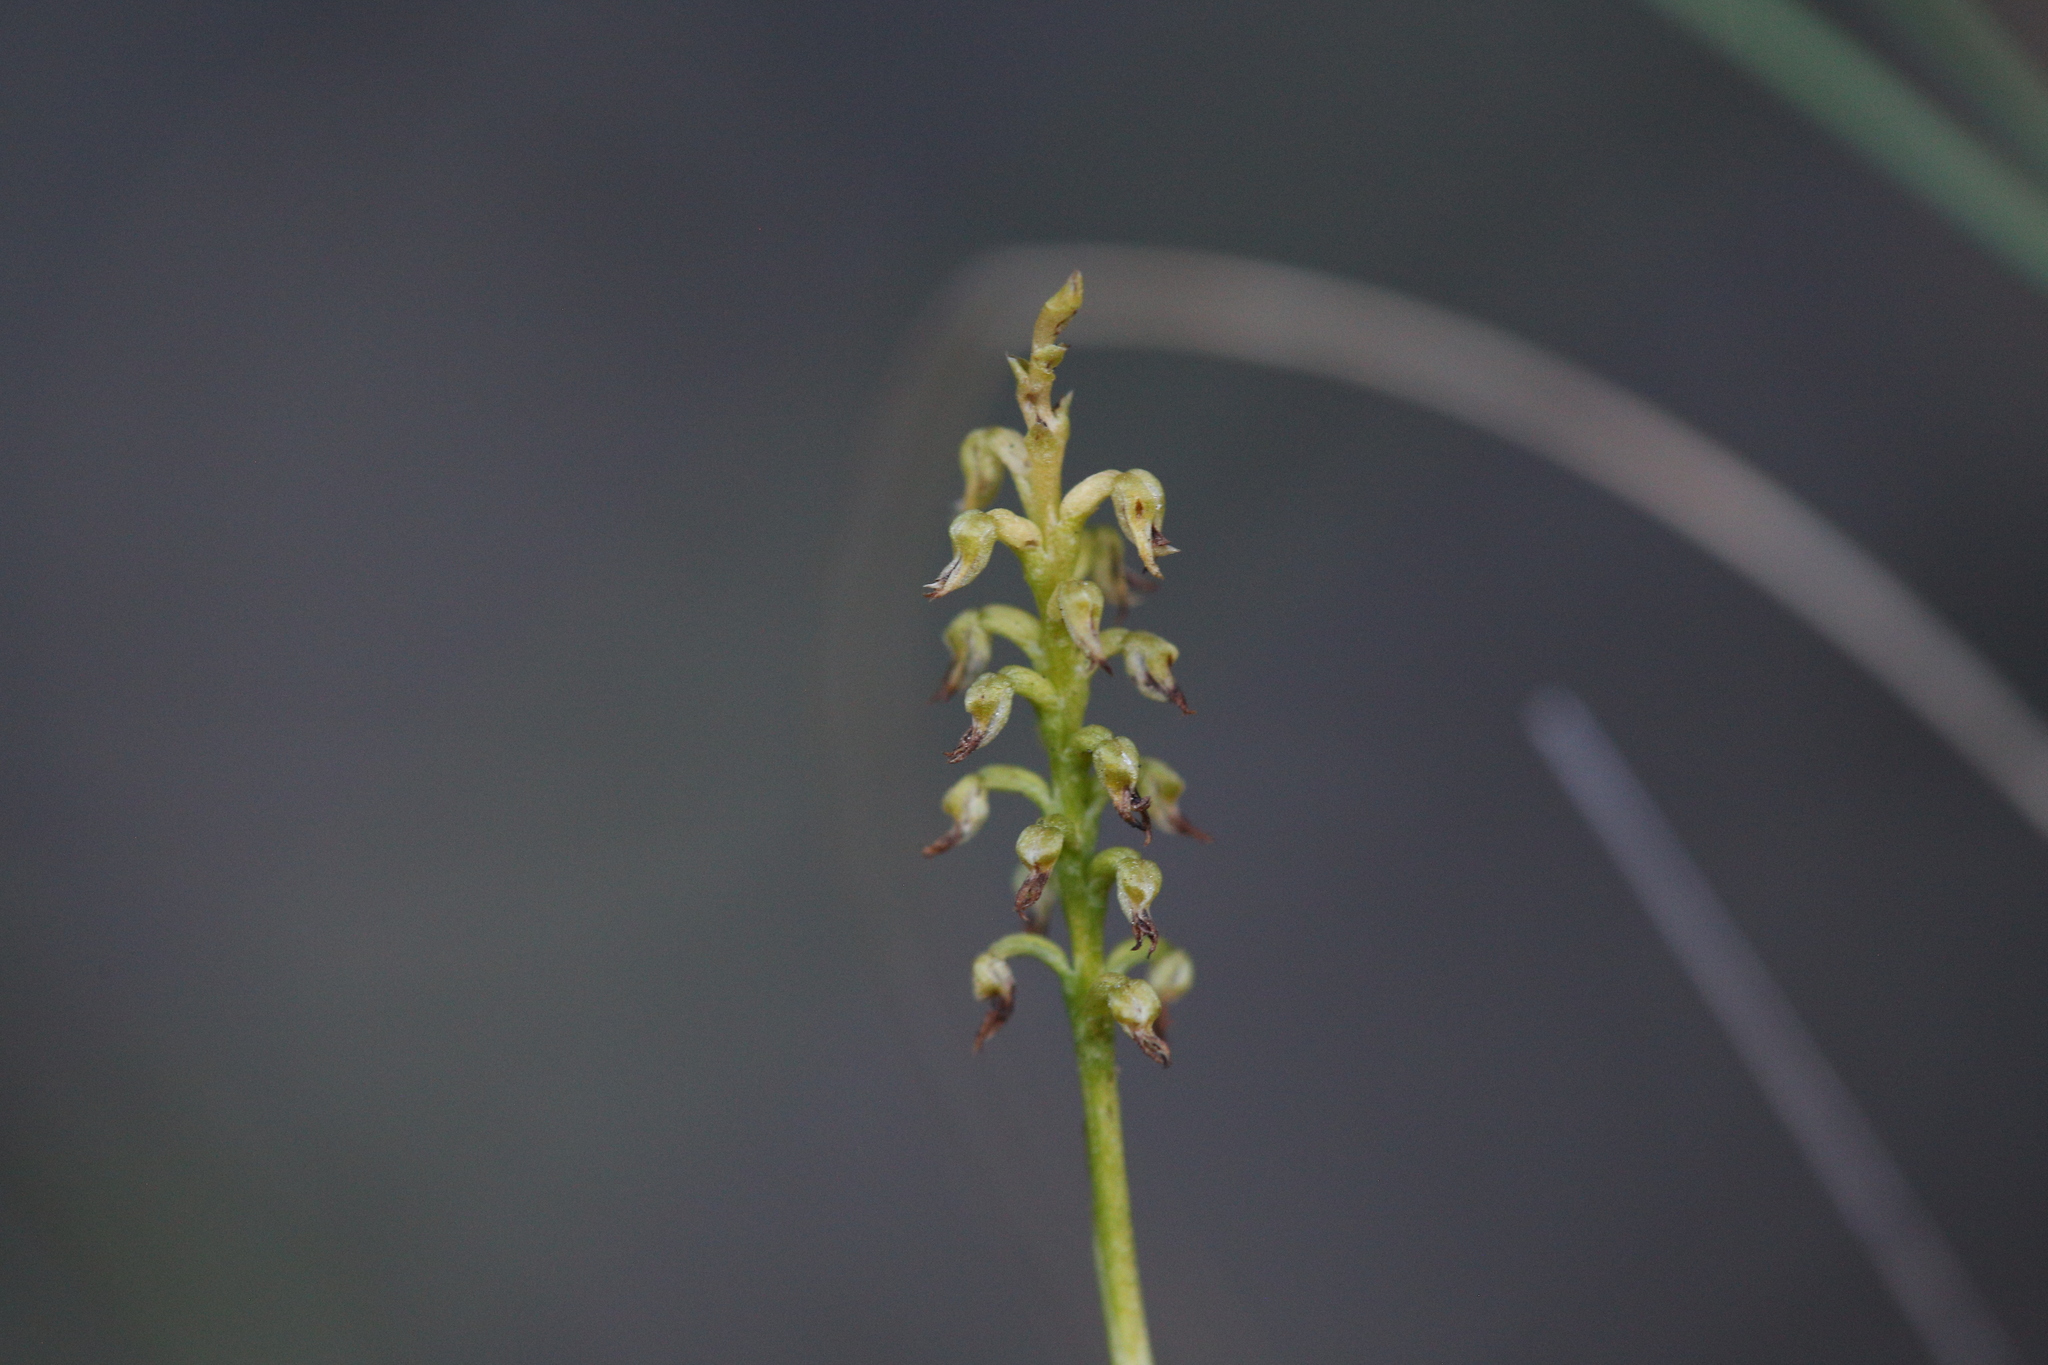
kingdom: Plantae
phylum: Tracheophyta
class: Liliopsida
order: Asparagales
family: Orchidaceae
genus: Genoplesium
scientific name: Genoplesium nigricans
